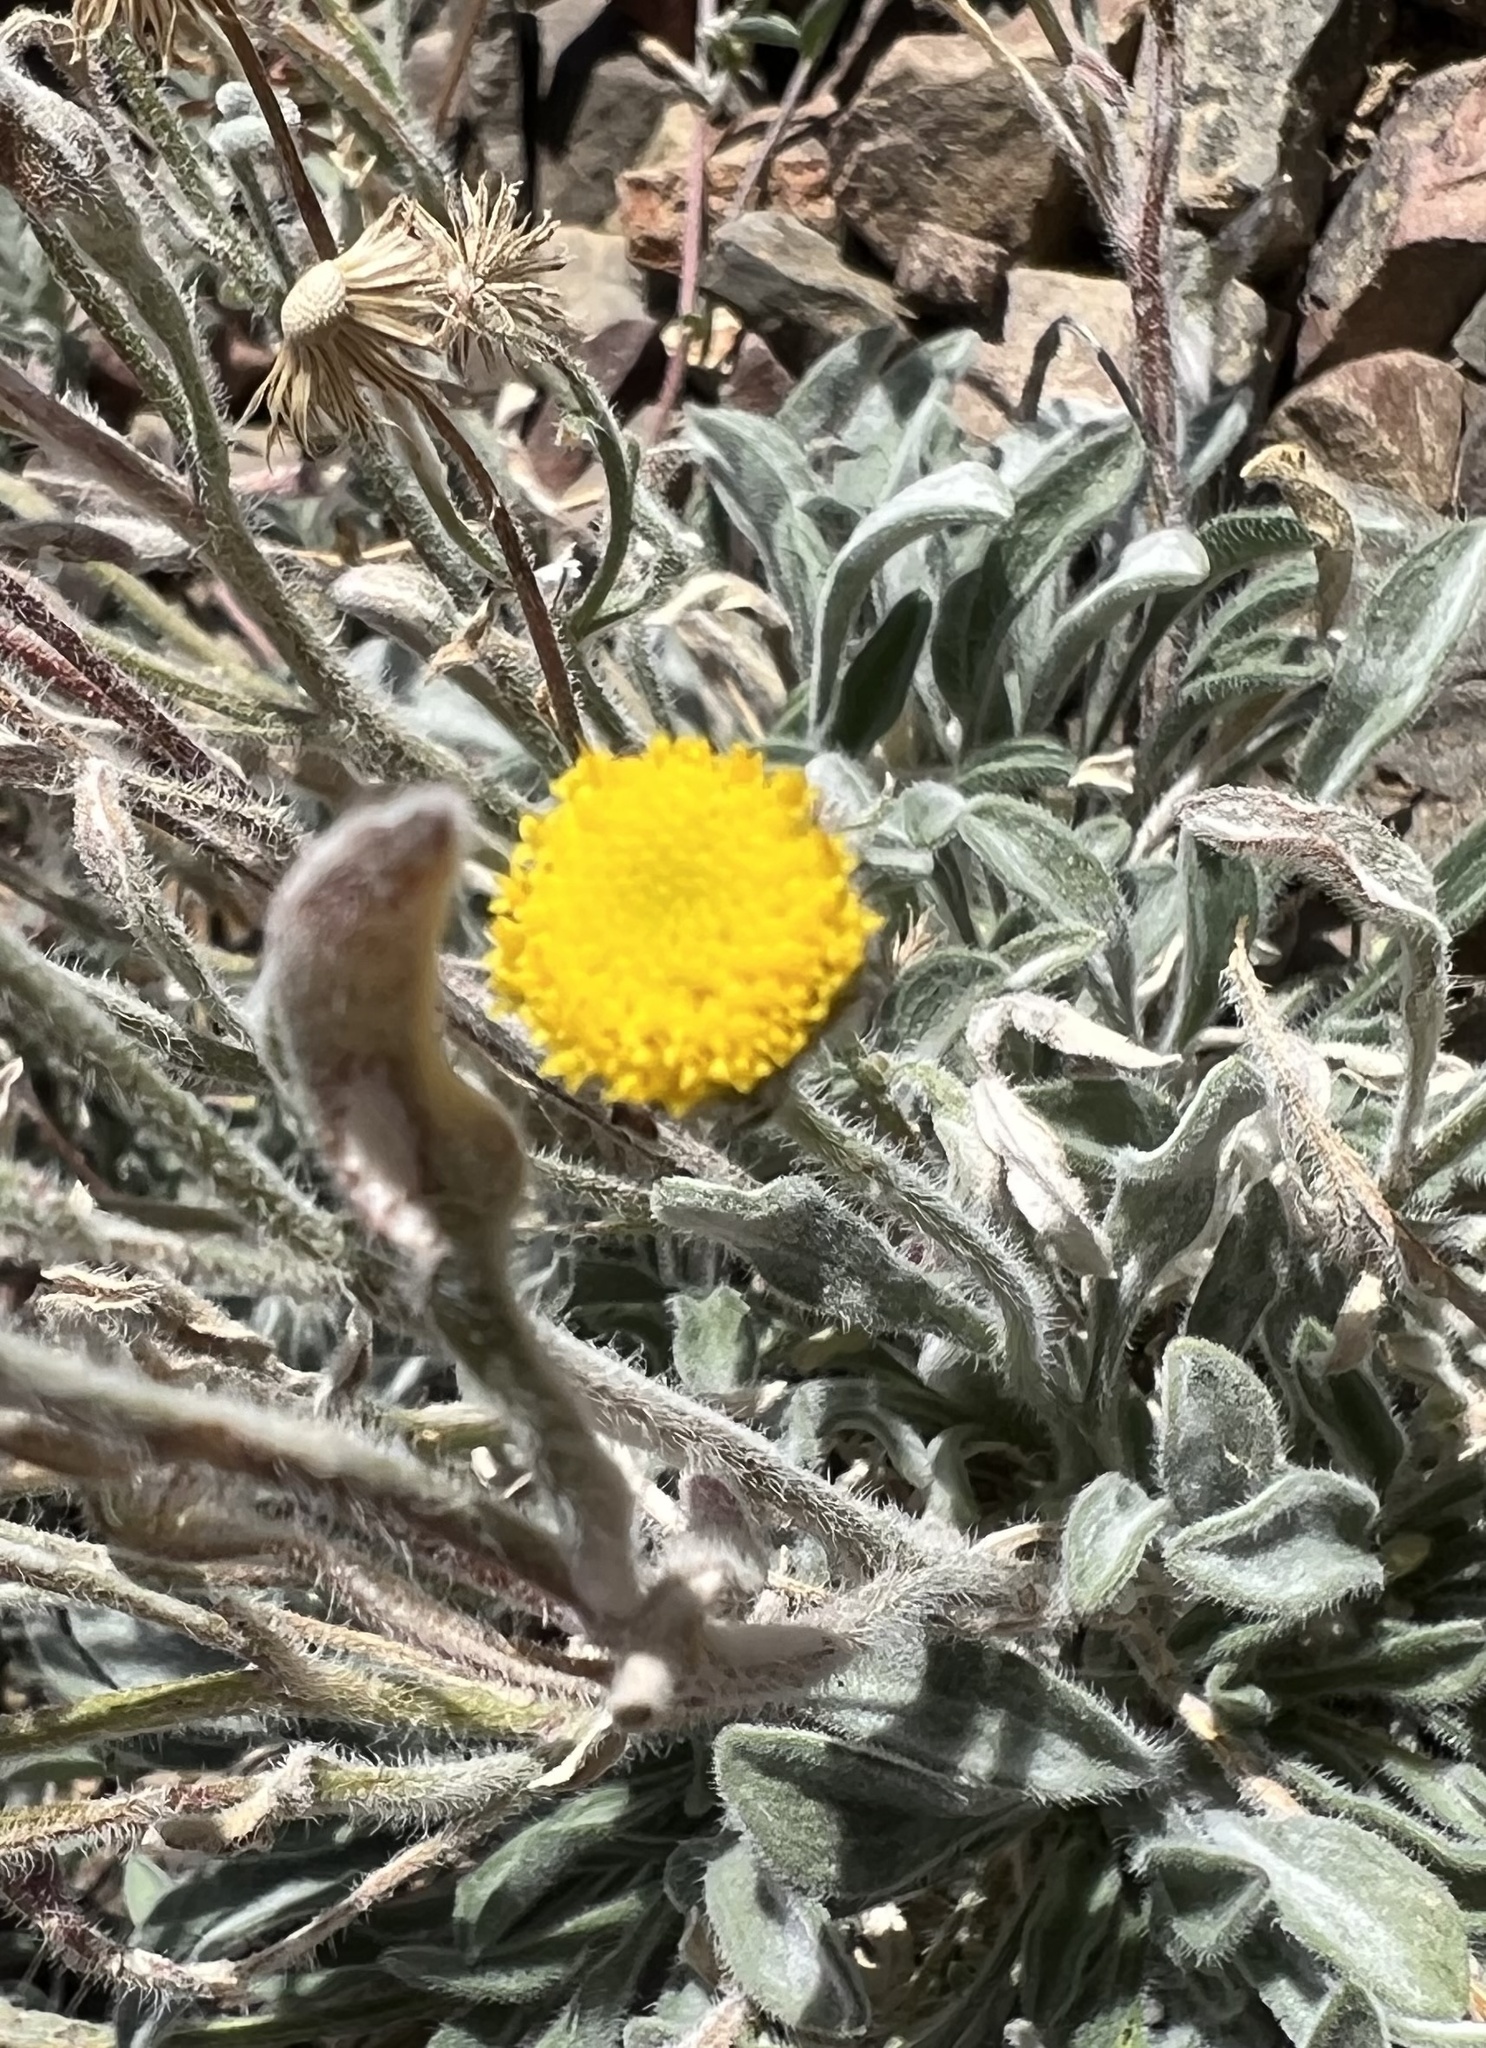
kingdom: Plantae
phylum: Tracheophyta
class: Magnoliopsida
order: Asterales
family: Asteraceae
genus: Erigeron
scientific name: Erigeron aphanactis
